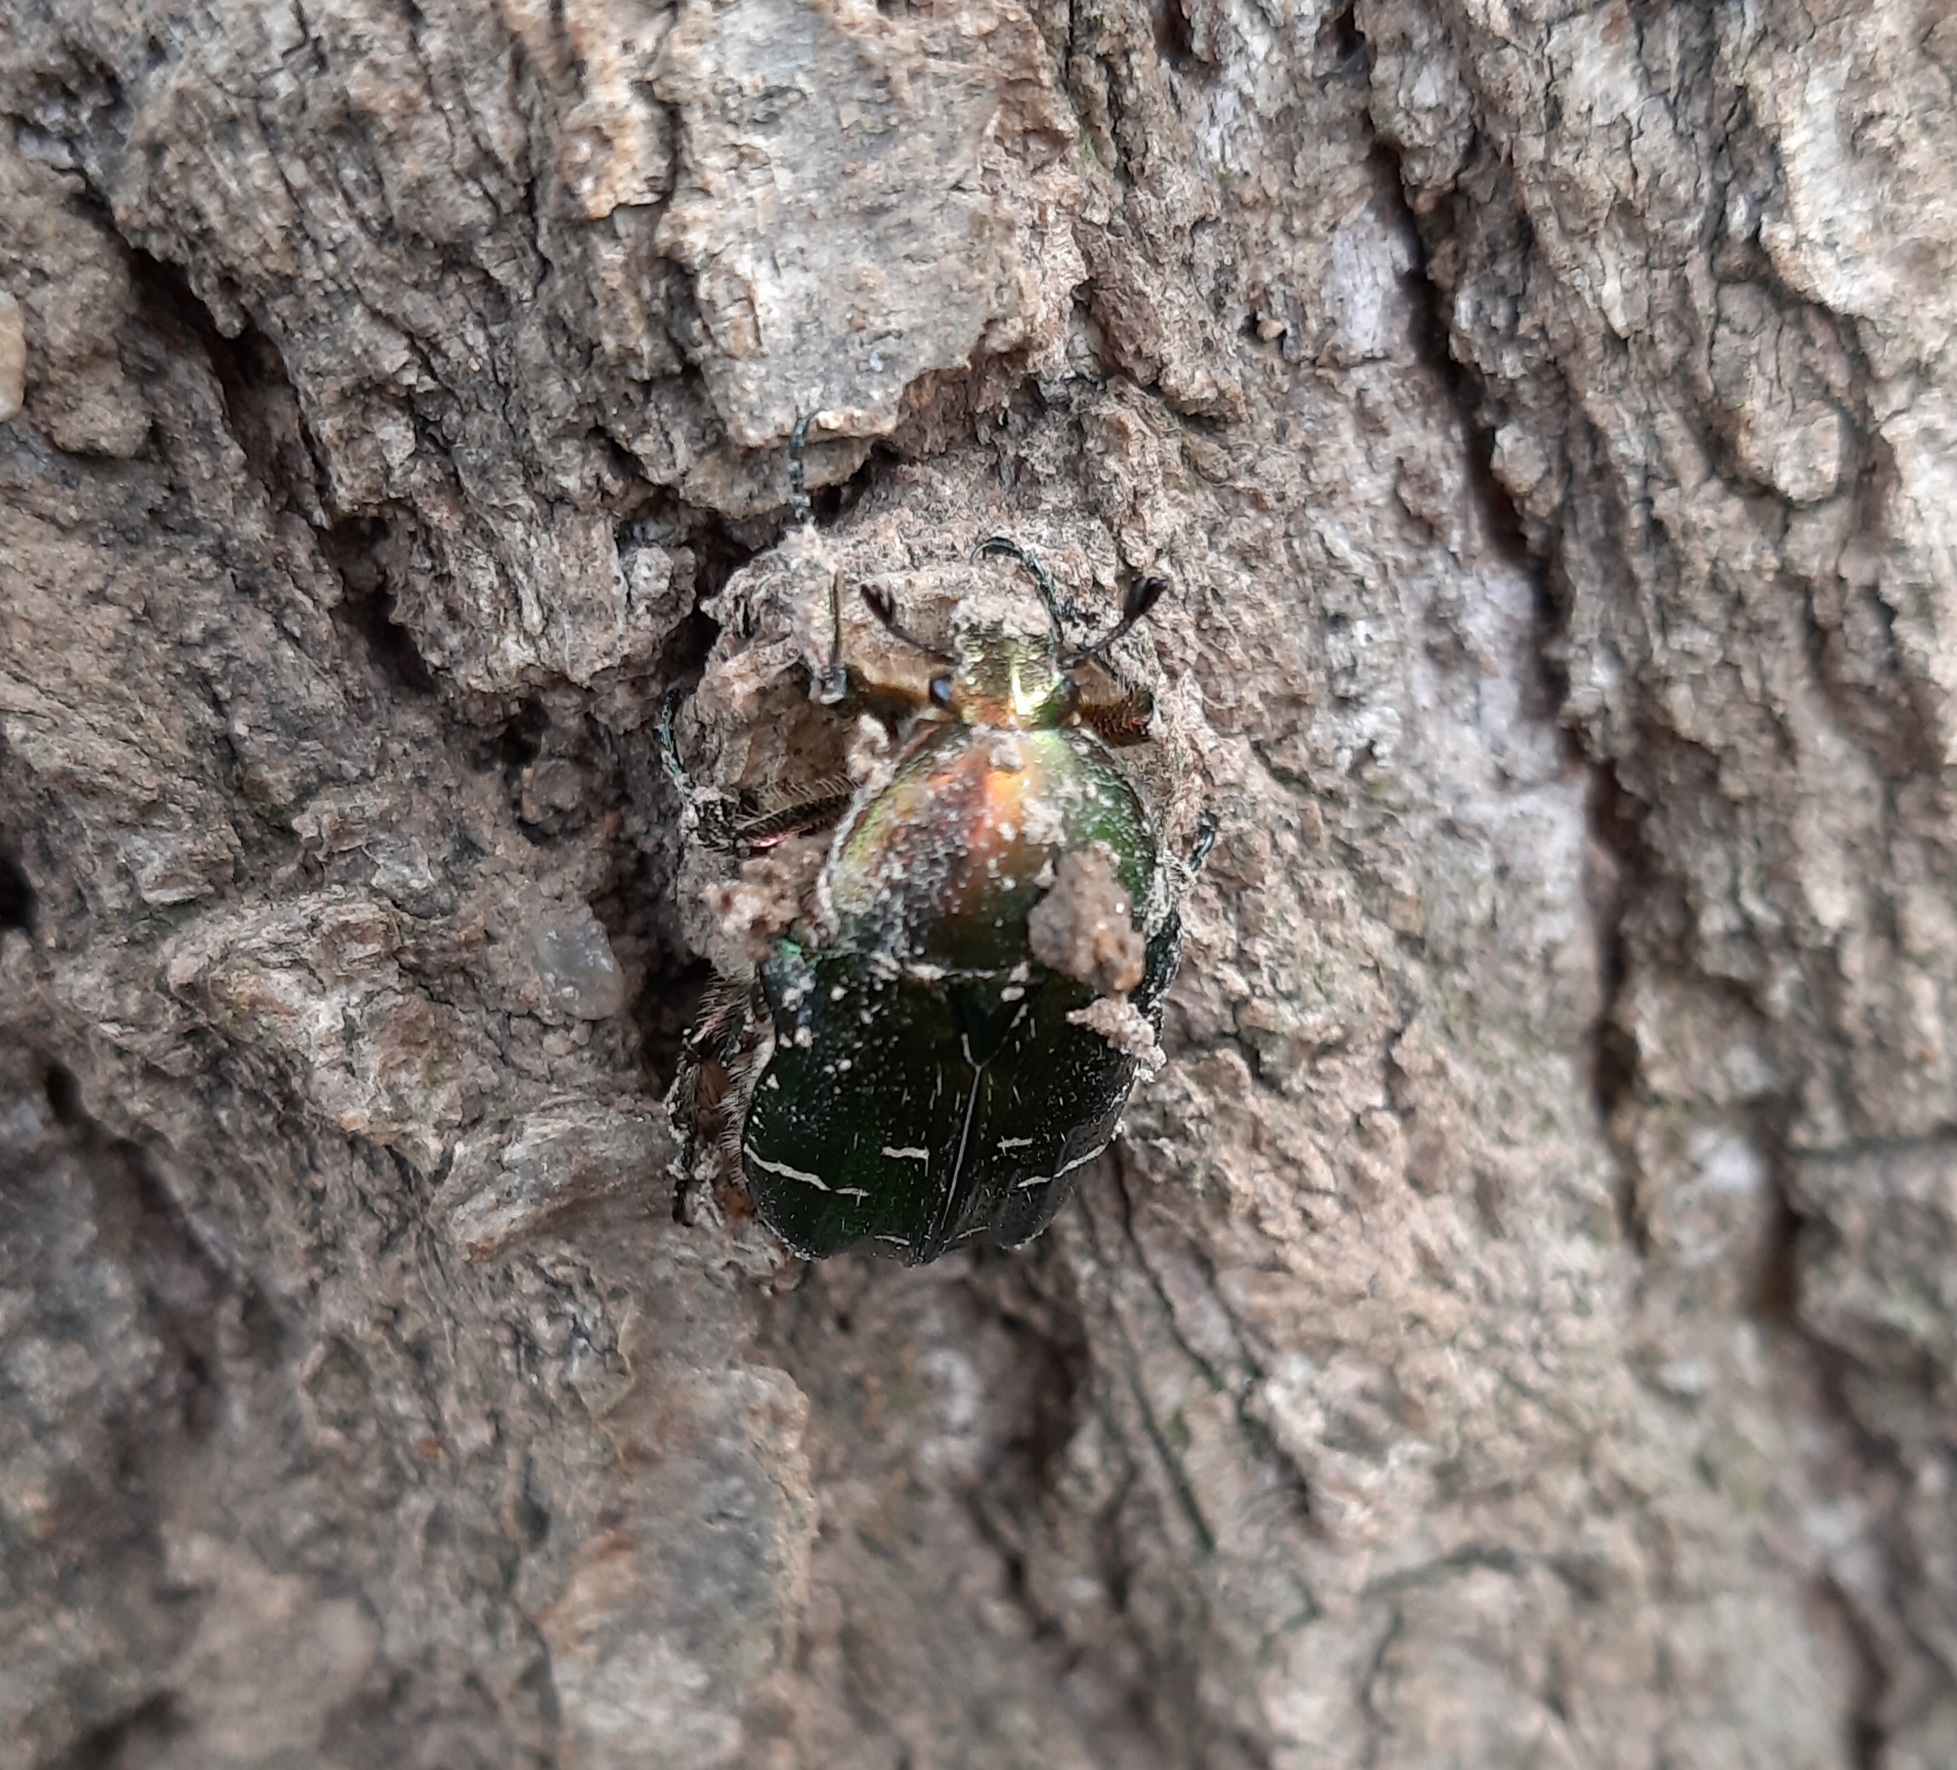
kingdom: Animalia
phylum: Arthropoda
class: Insecta
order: Coleoptera
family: Scarabaeidae
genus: Cetonia
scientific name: Cetonia aurata
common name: Rose chafer
